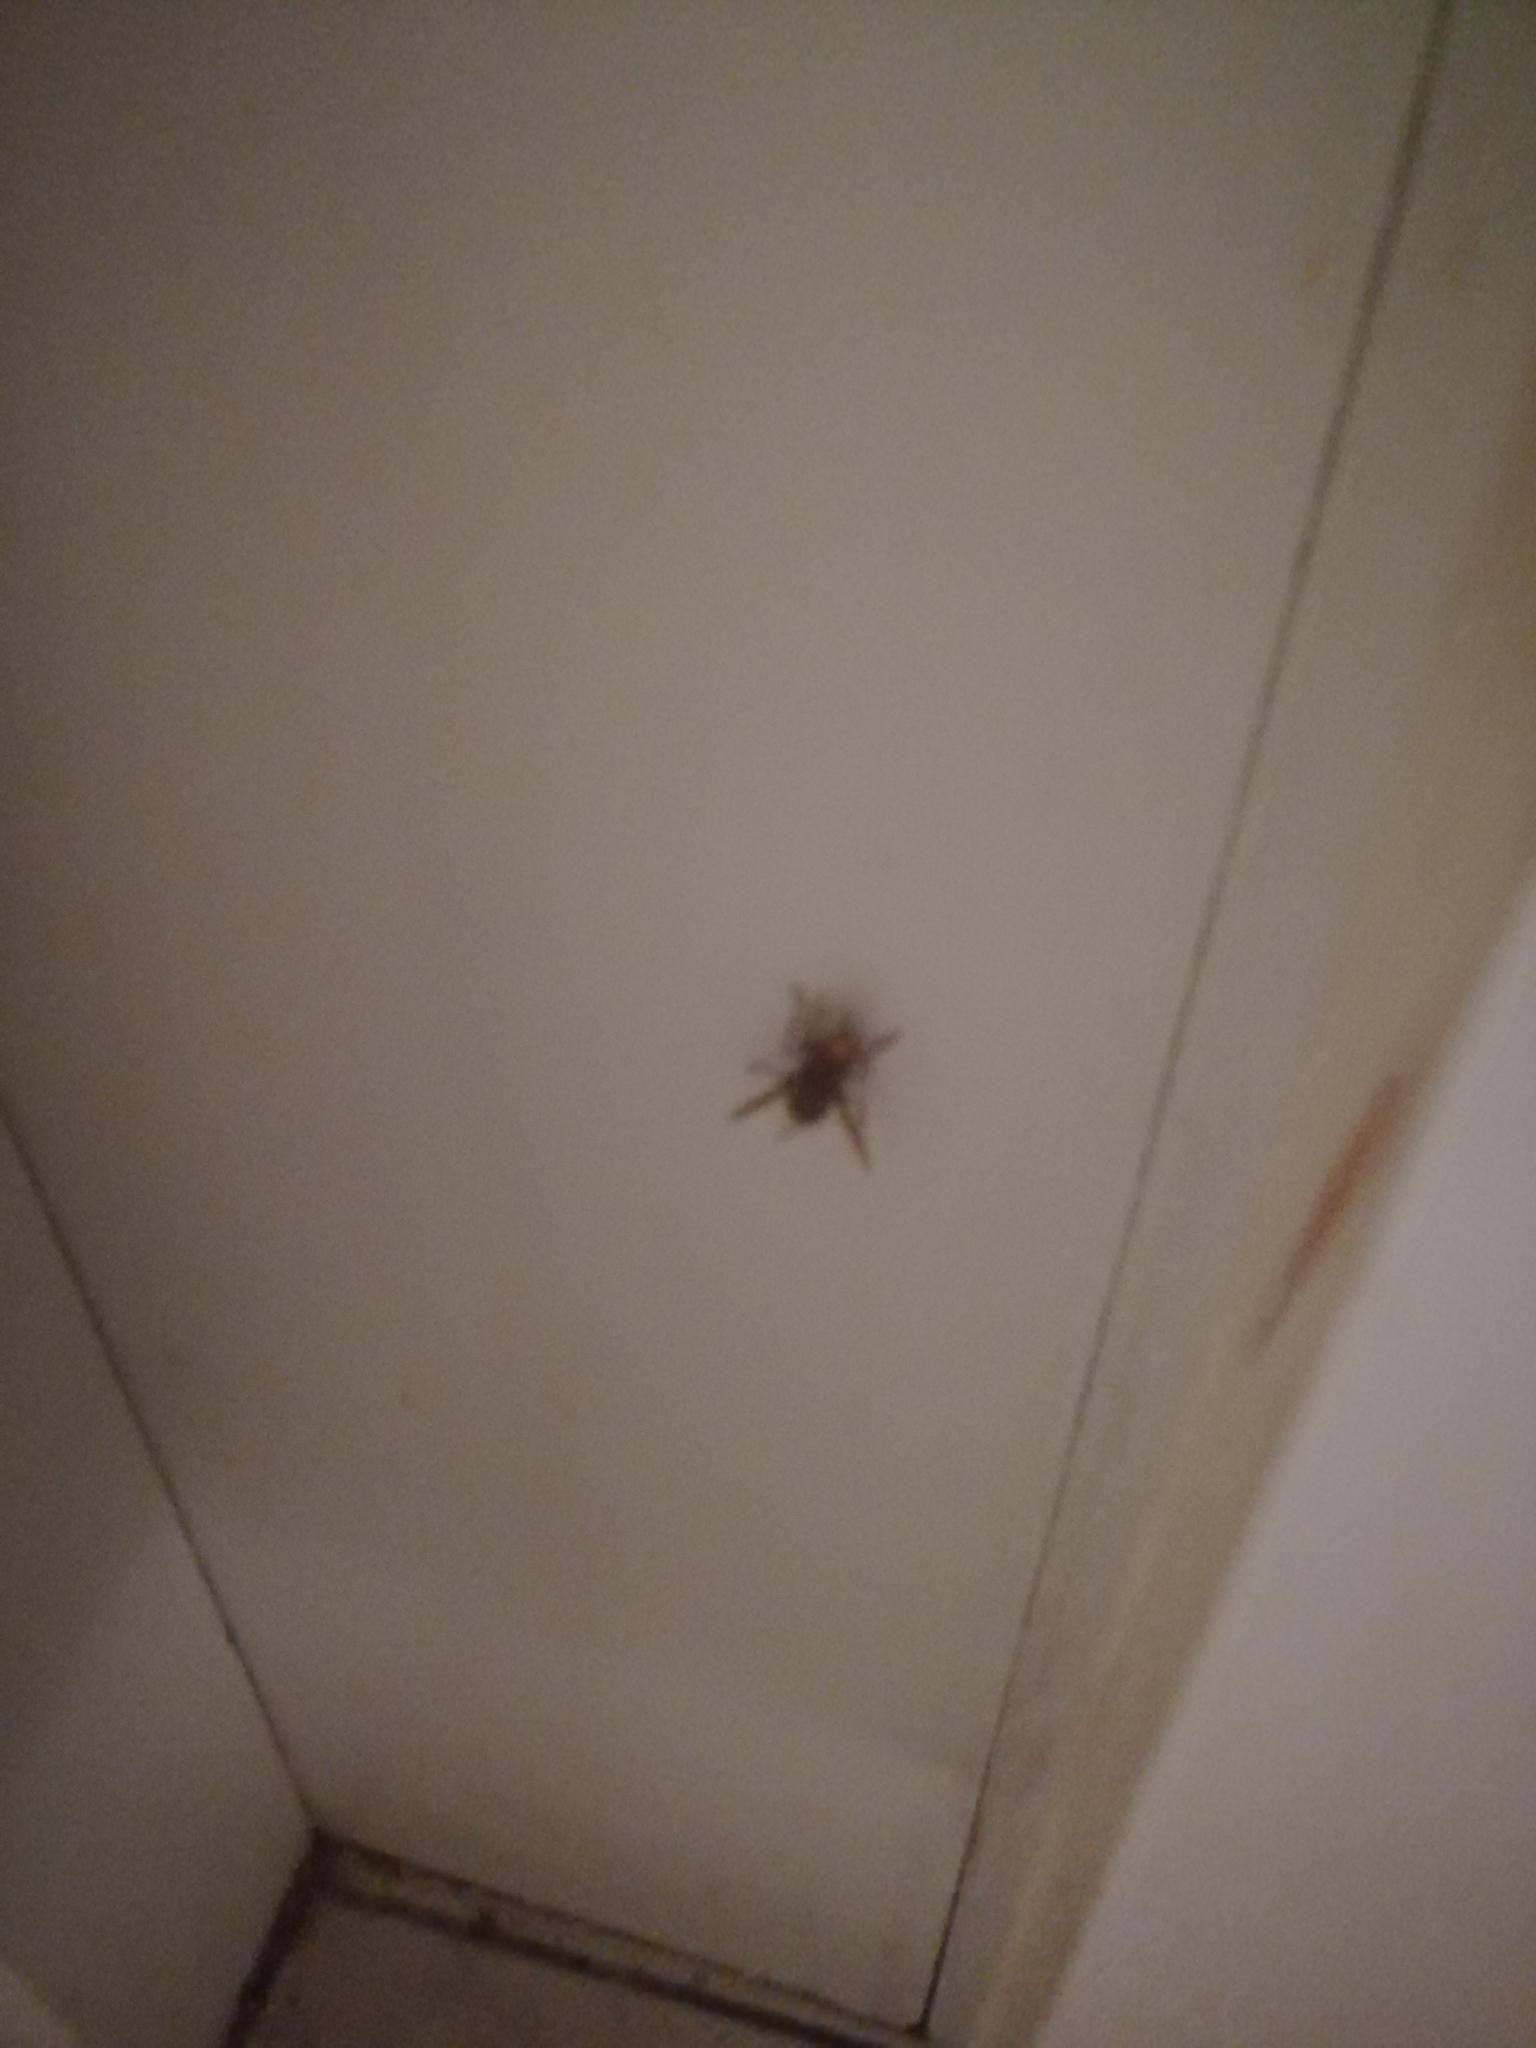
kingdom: Animalia
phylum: Arthropoda
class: Insecta
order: Hymenoptera
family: Vespidae
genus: Vespa
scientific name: Vespa crabro
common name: Hornet
